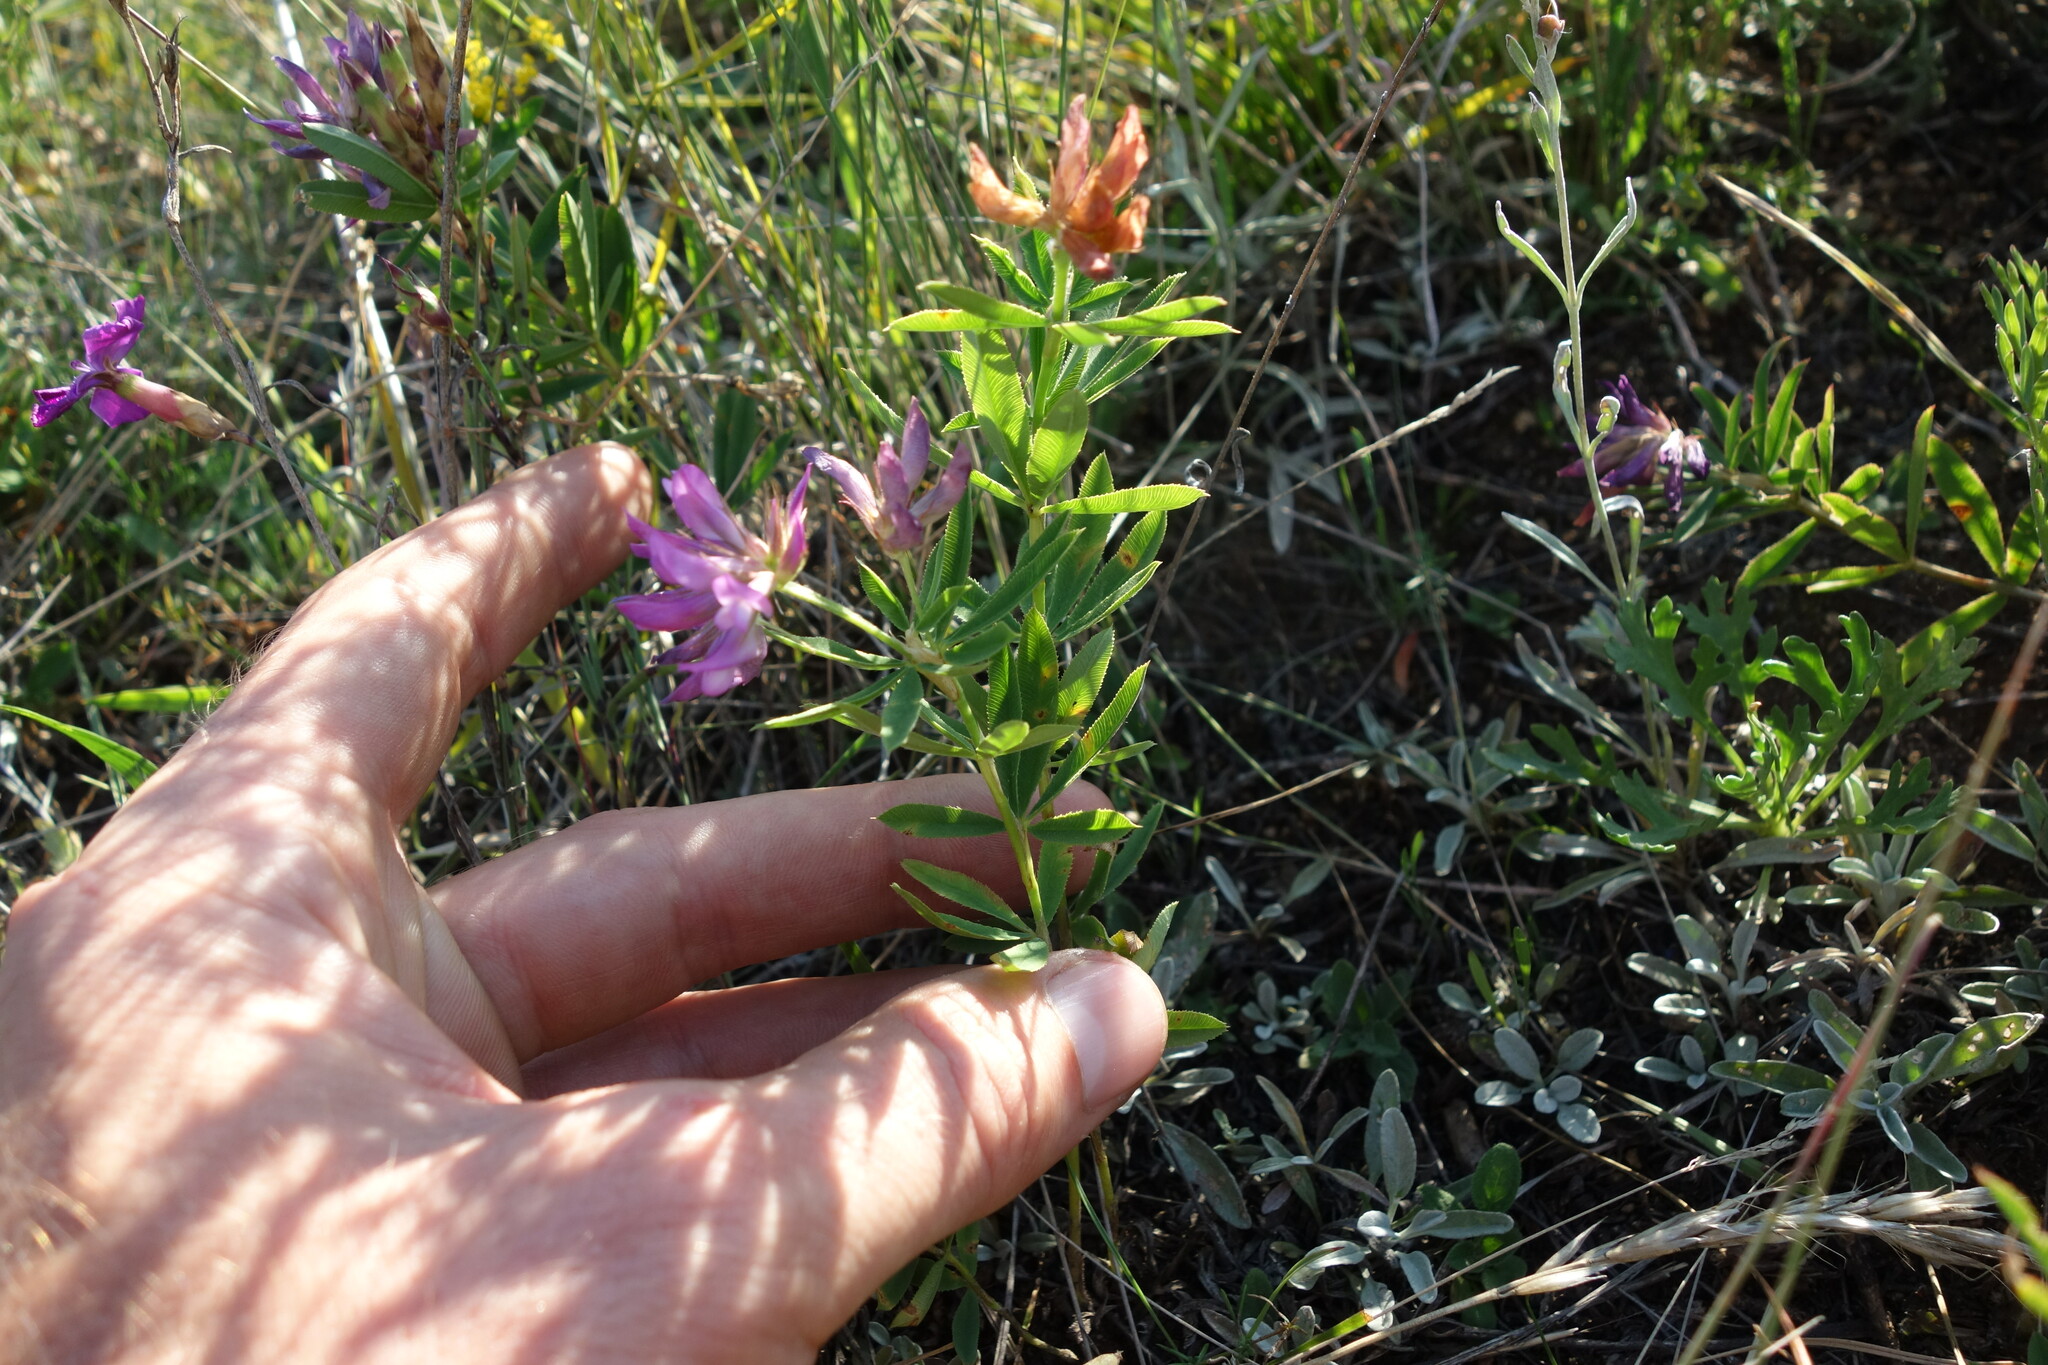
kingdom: Plantae
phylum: Tracheophyta
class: Magnoliopsida
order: Fabales
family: Fabaceae
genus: Trifolium
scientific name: Trifolium lupinaster
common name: Lupine clover
